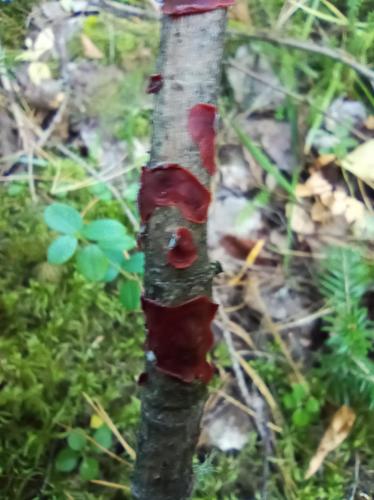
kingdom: Fungi
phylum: Basidiomycota
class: Agaricomycetes
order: Corticiales
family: Vuilleminiaceae
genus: Cytidia
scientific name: Cytidia salicina
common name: Scarlet splash
